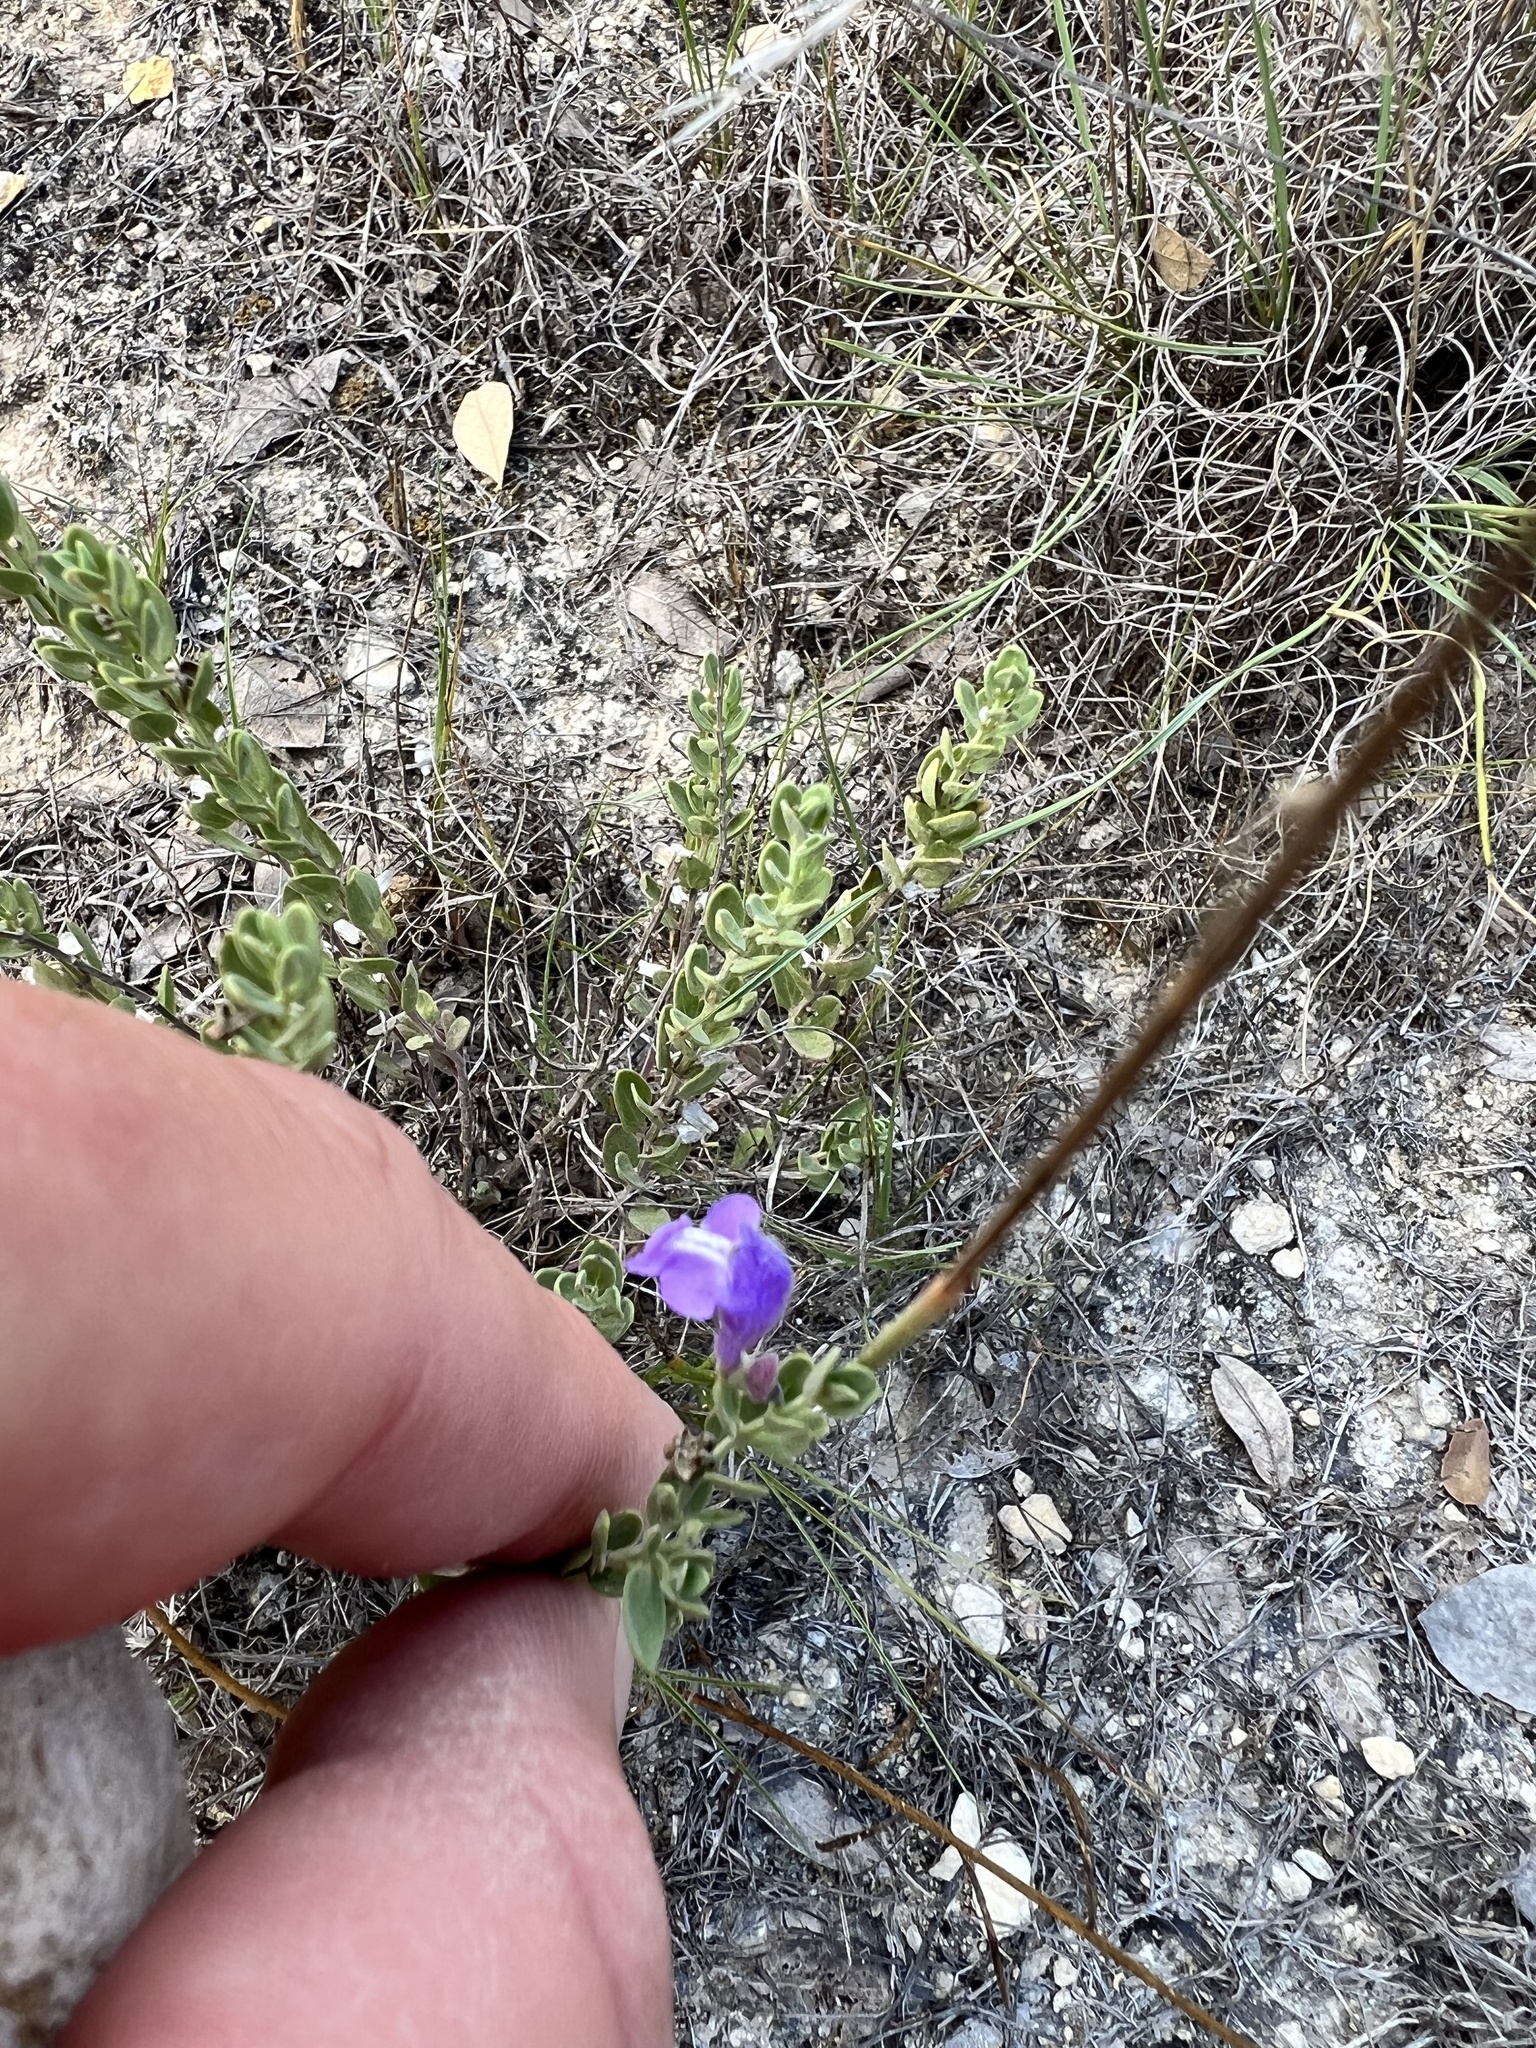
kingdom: Plantae
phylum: Tracheophyta
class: Magnoliopsida
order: Lamiales
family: Lamiaceae
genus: Scutellaria
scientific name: Scutellaria wrightii
